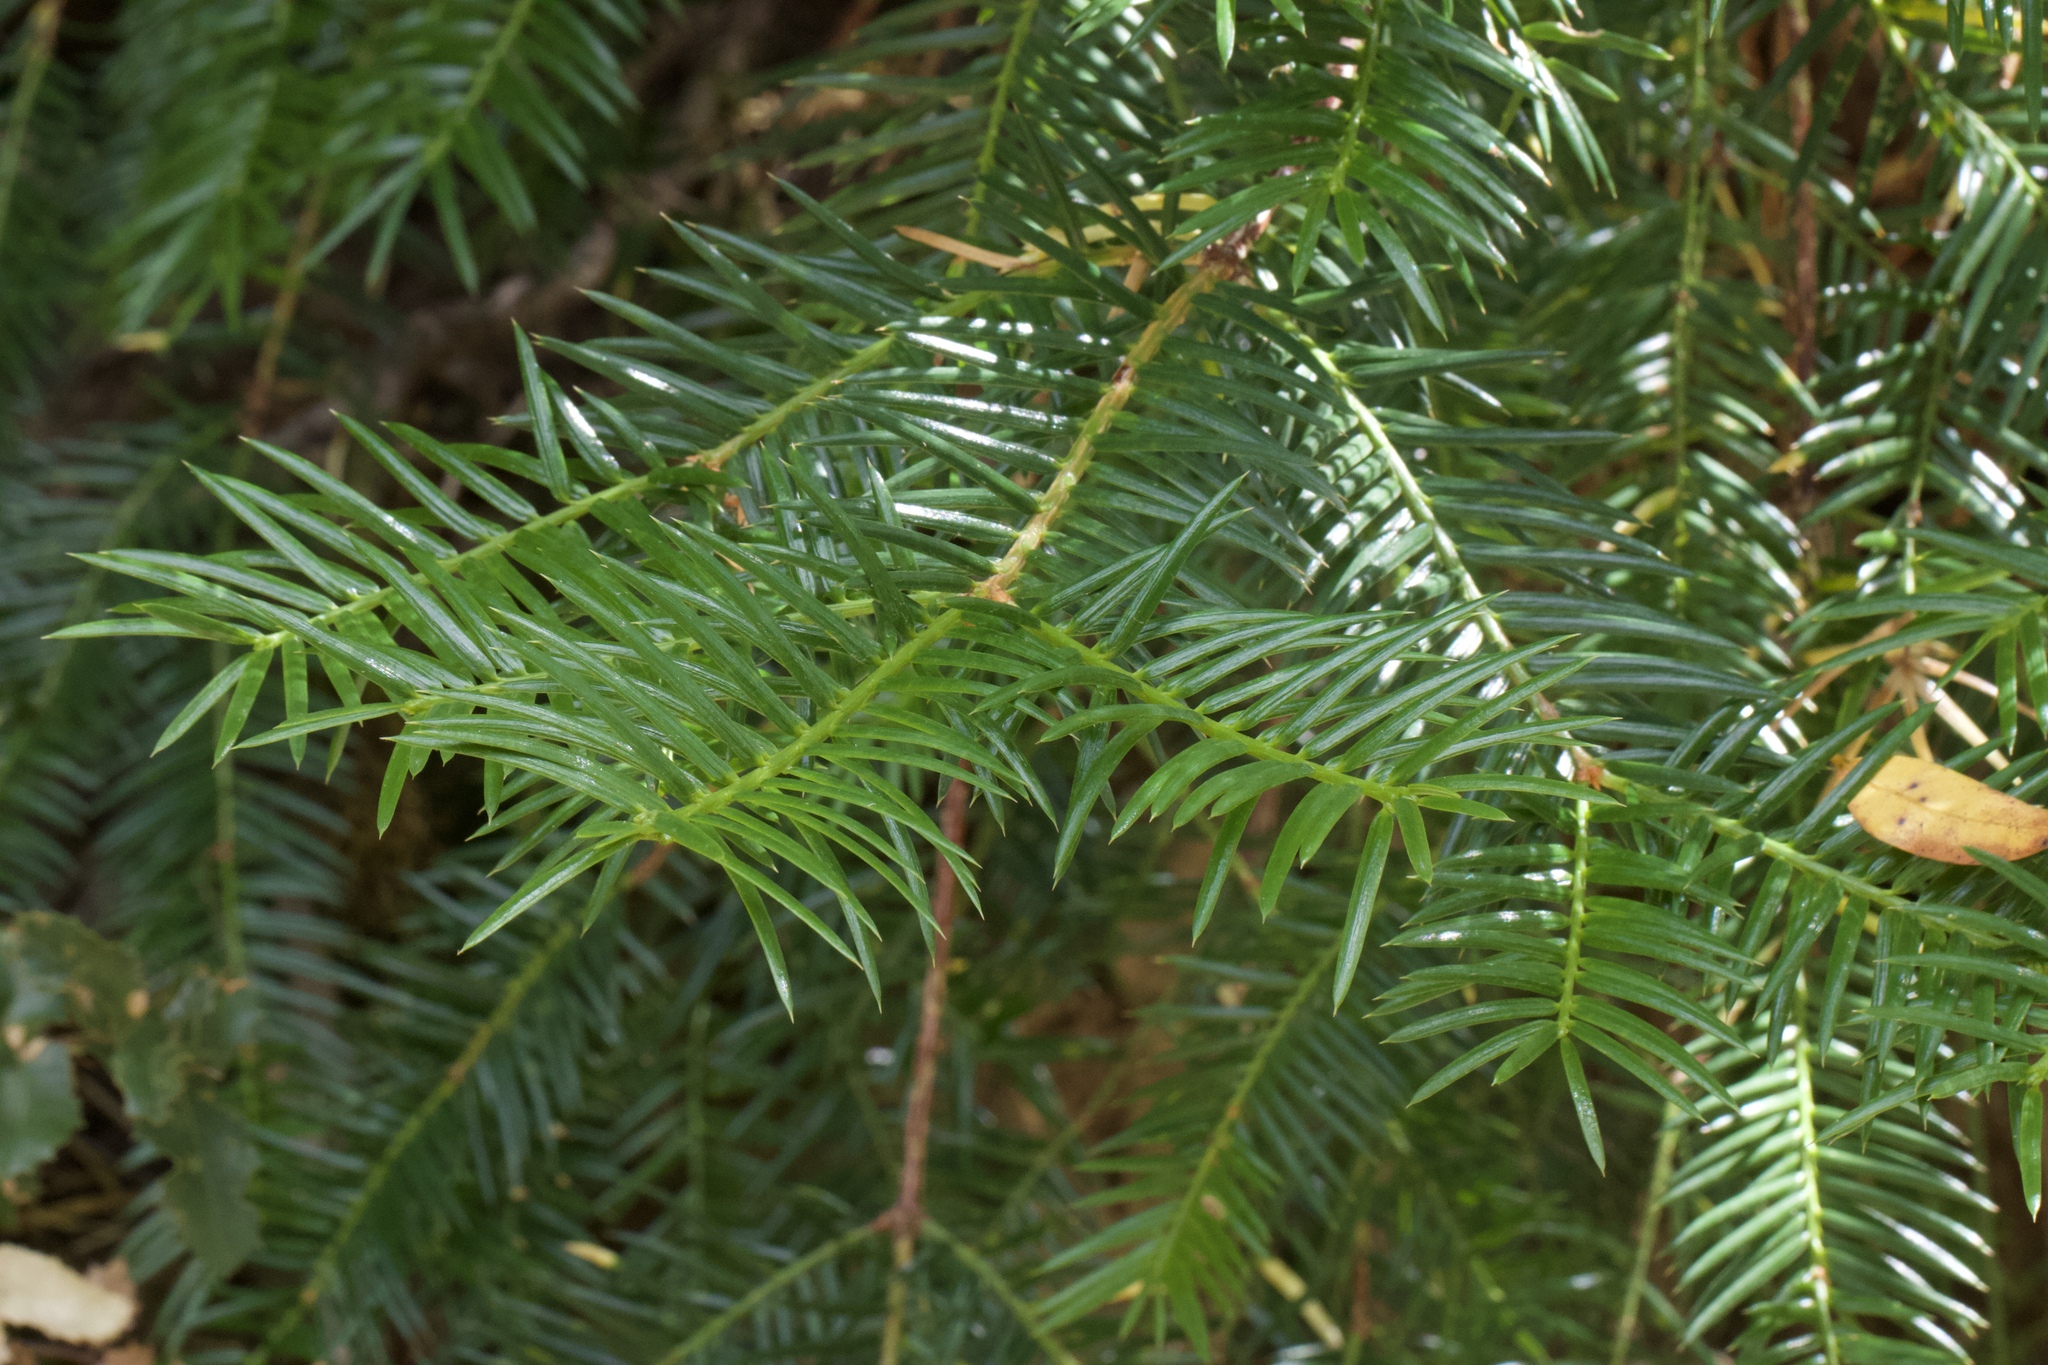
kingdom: Plantae
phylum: Tracheophyta
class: Pinopsida
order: Pinales
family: Taxaceae
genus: Torreya
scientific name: Torreya californica
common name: California torreya
